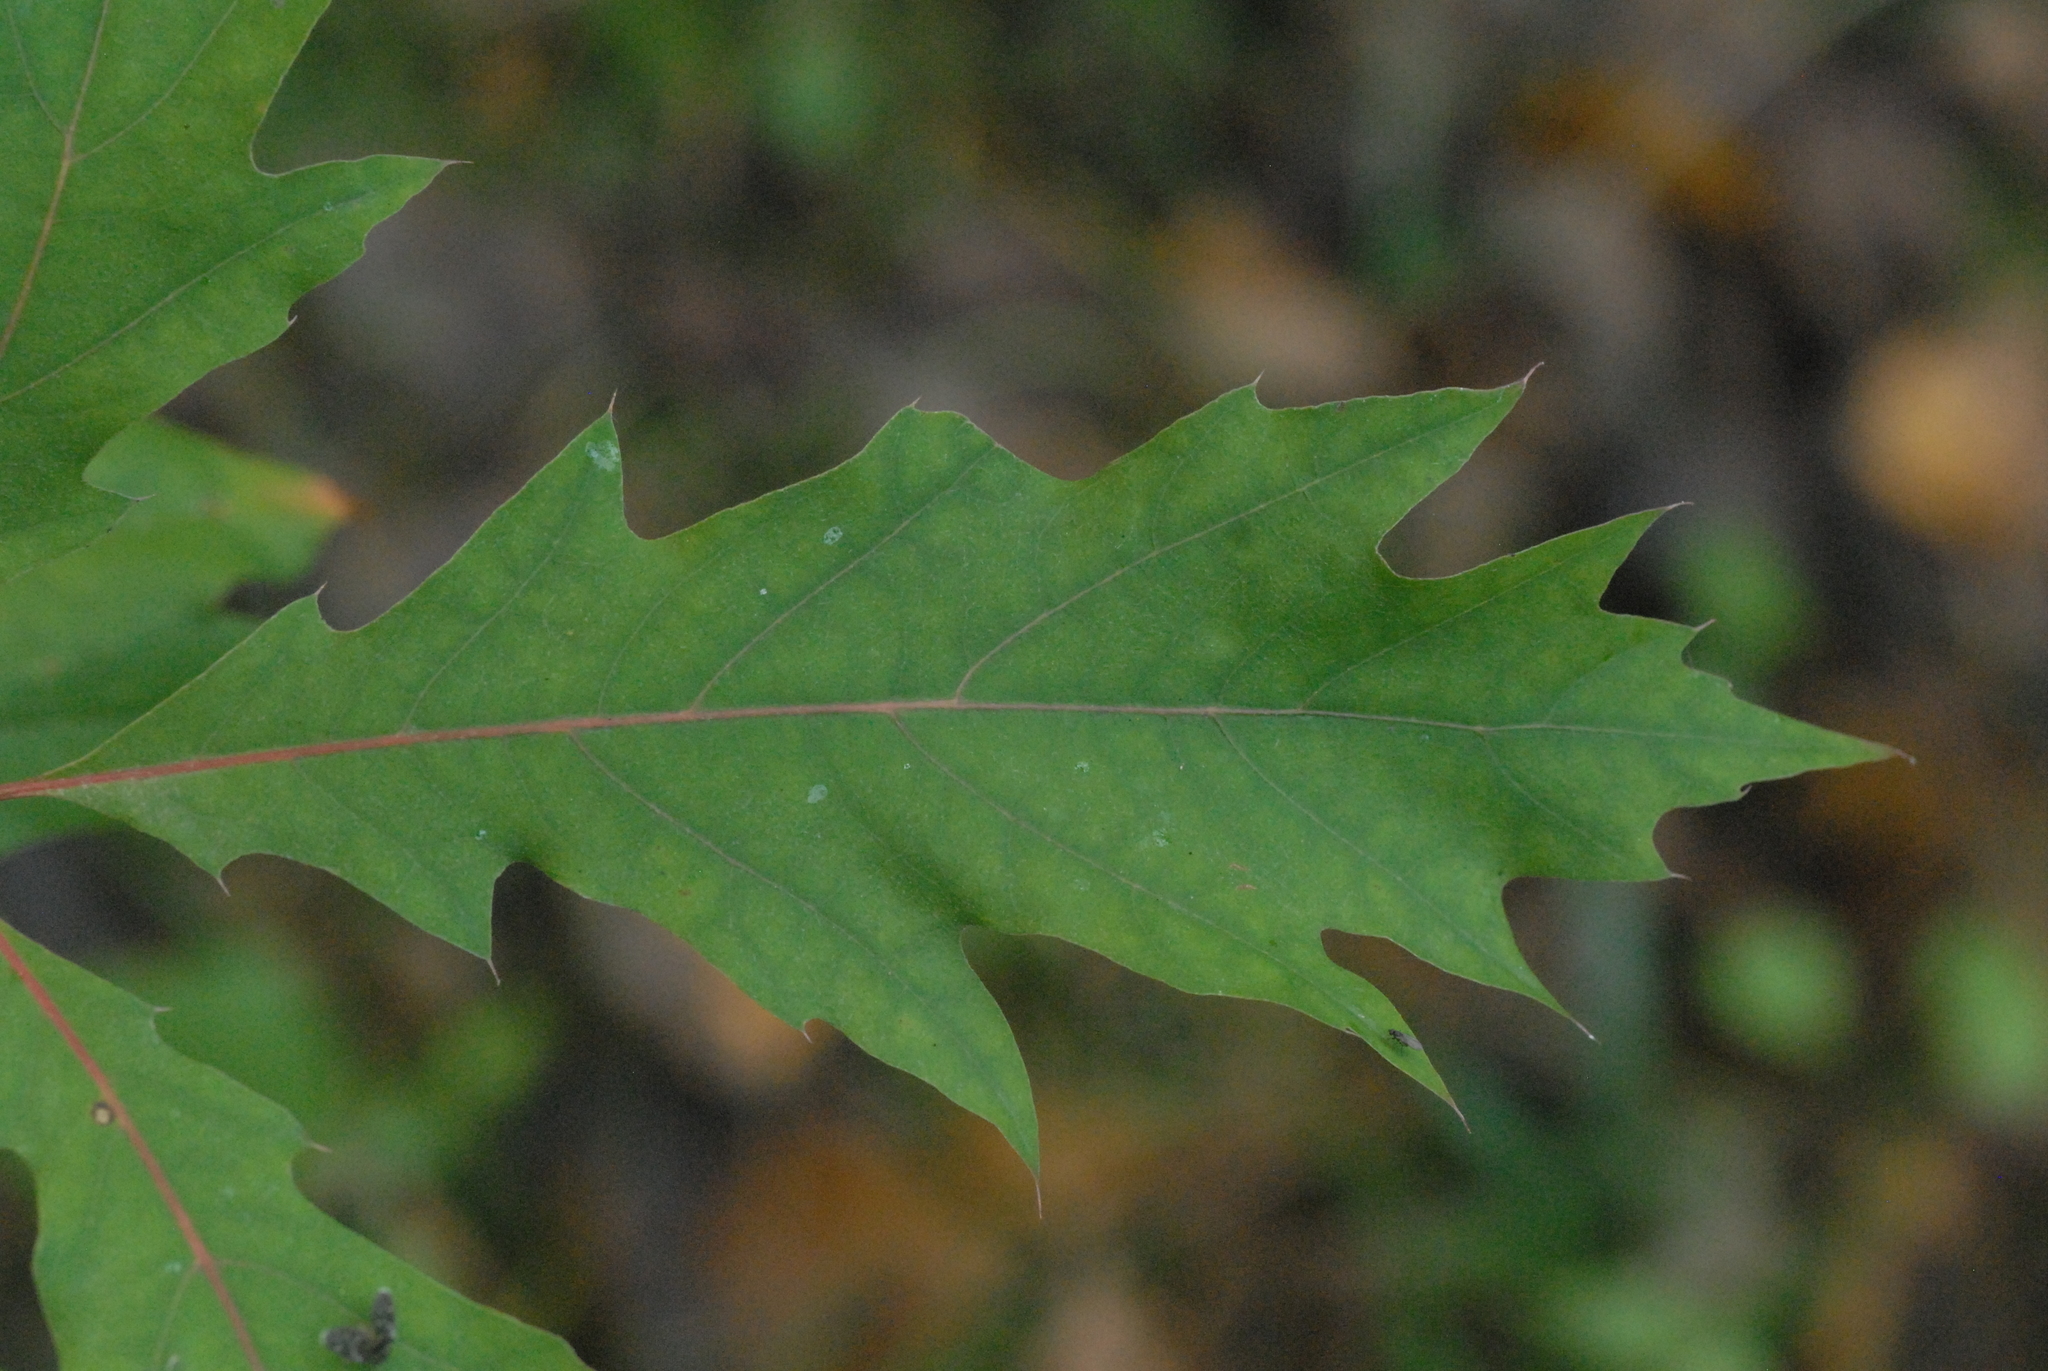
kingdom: Plantae
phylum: Tracheophyta
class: Magnoliopsida
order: Fagales
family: Fagaceae
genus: Quercus
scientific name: Quercus rubra
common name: Red oak
